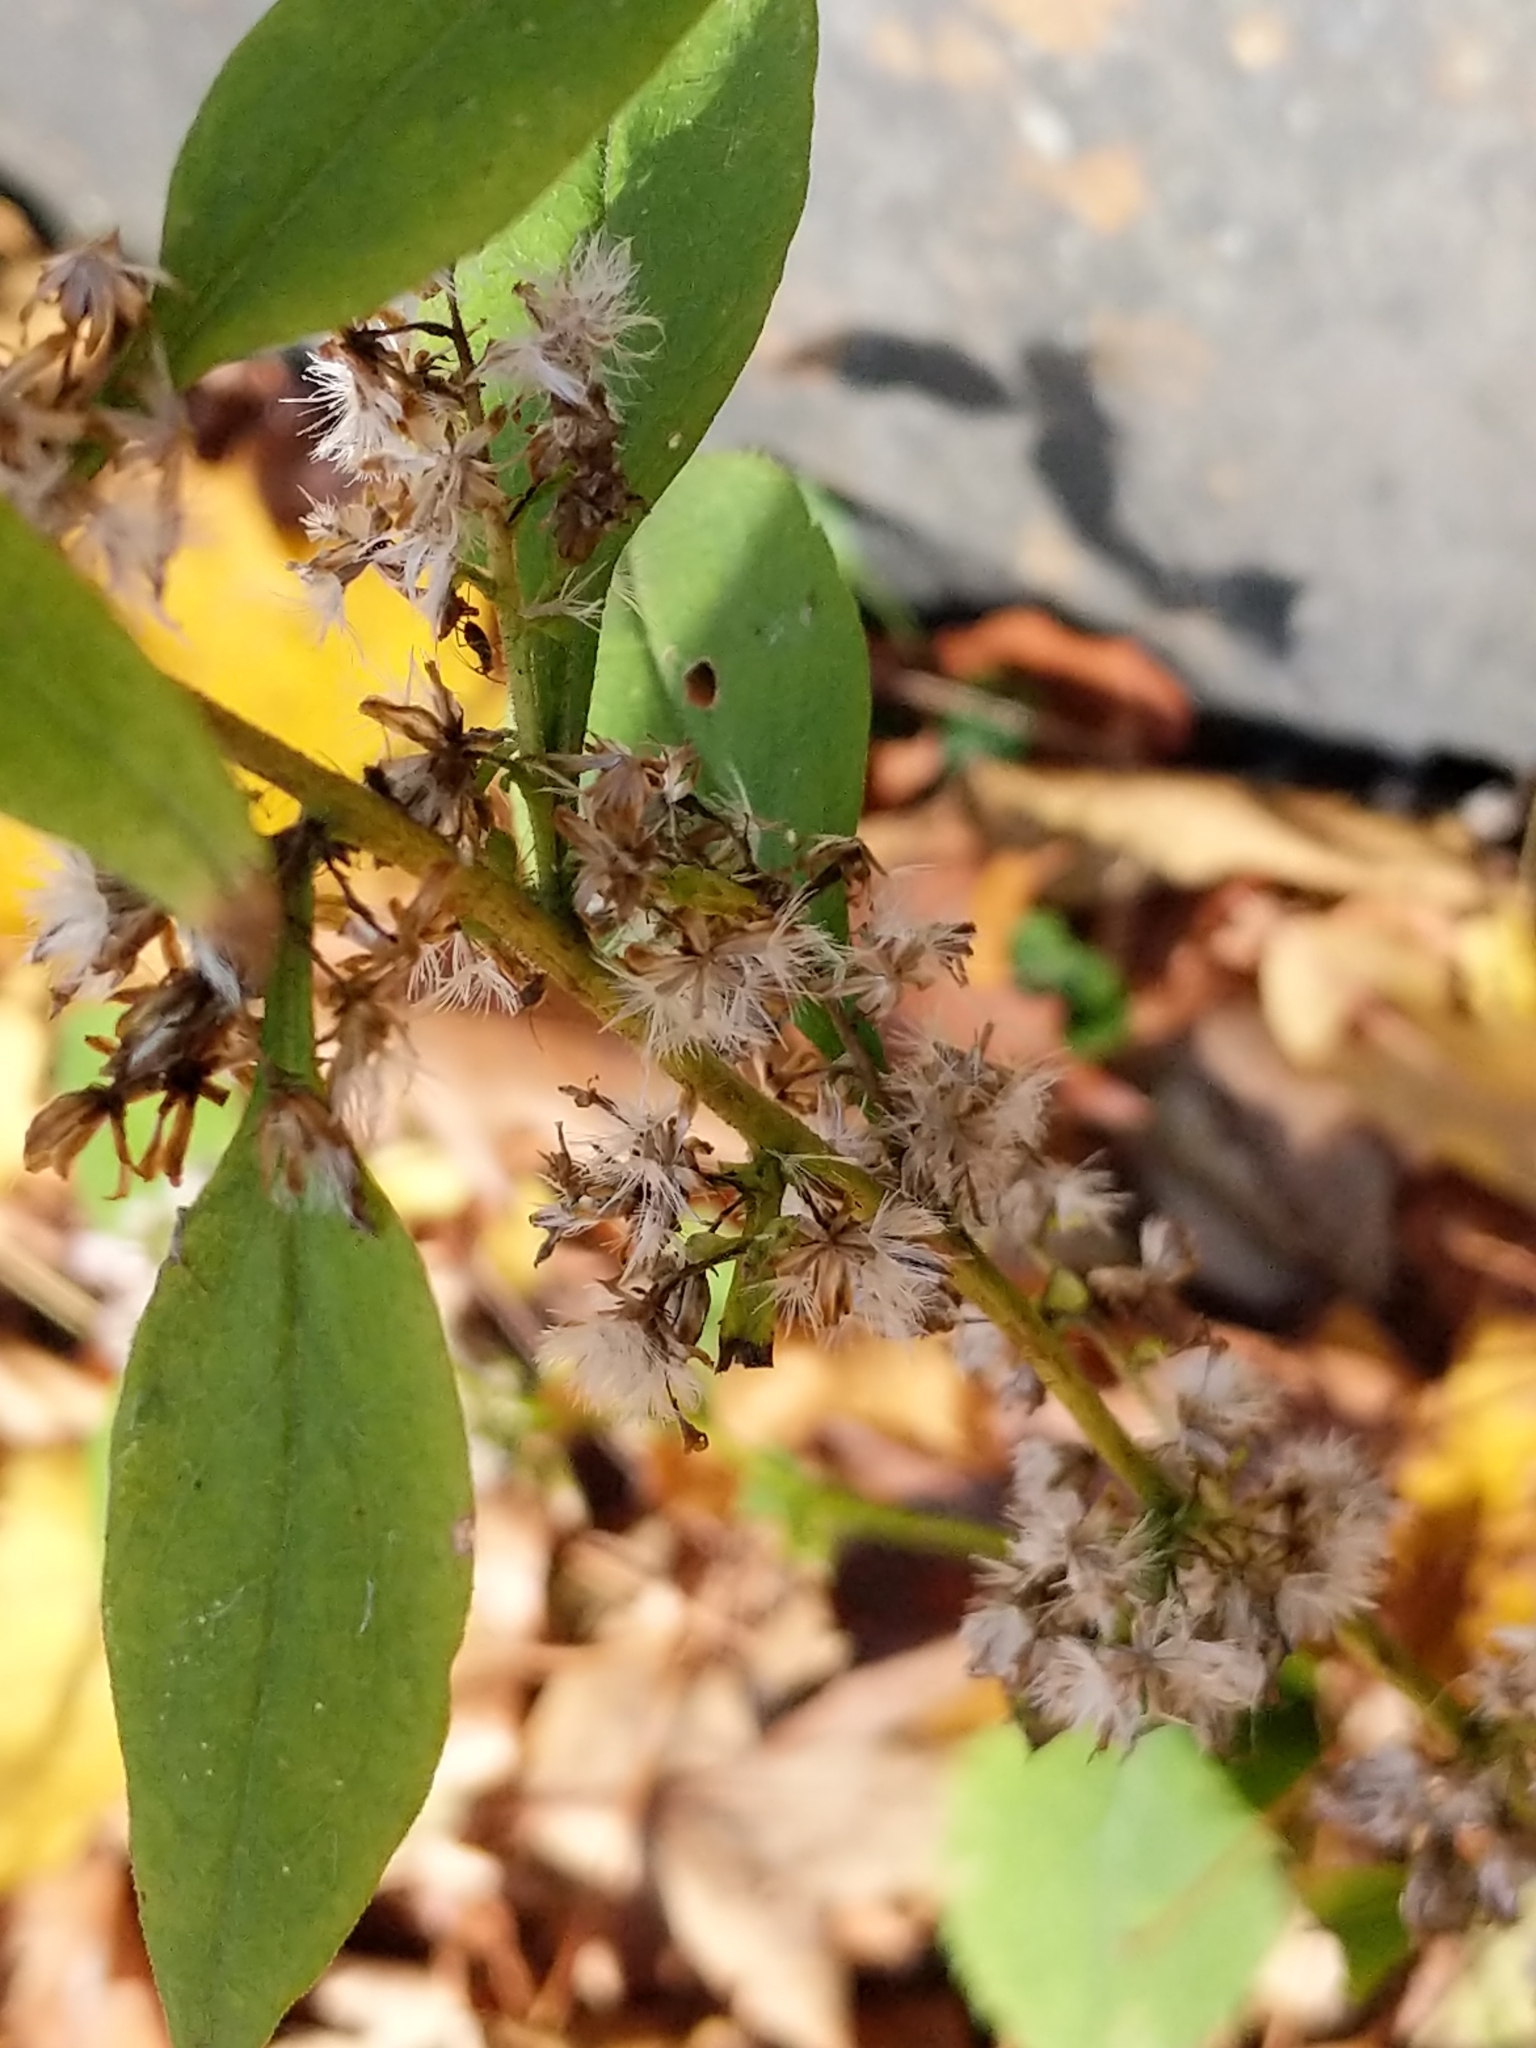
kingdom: Plantae
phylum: Tracheophyta
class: Magnoliopsida
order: Asterales
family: Asteraceae
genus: Solidago
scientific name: Solidago flexicaulis
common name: Zig-zag goldenrod
